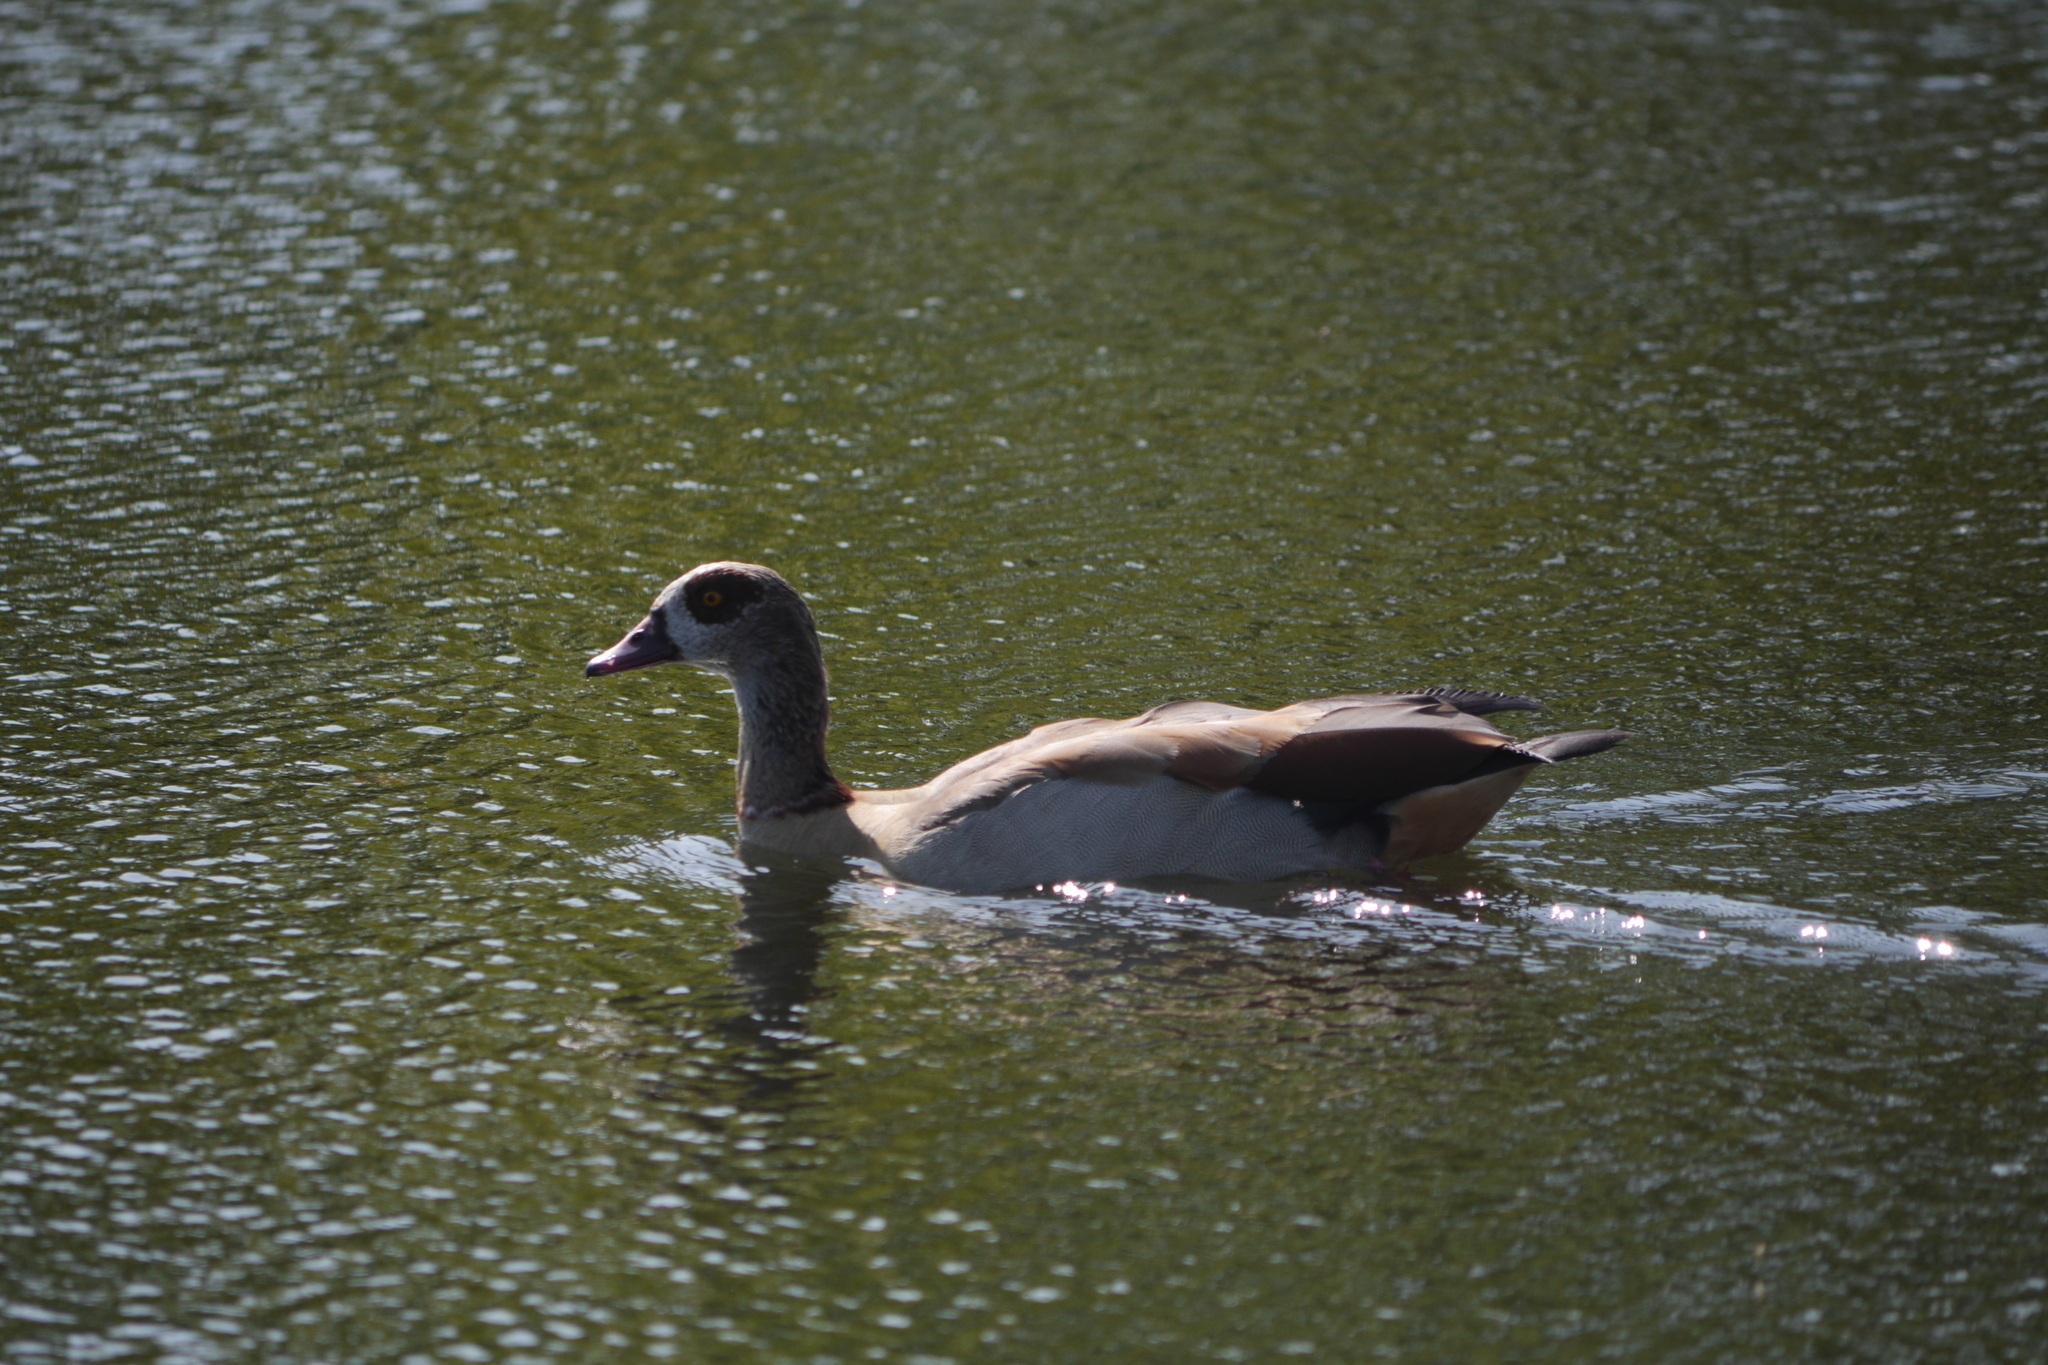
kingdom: Animalia
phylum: Chordata
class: Aves
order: Anseriformes
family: Anatidae
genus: Alopochen
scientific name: Alopochen aegyptiaca
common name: Egyptian goose
